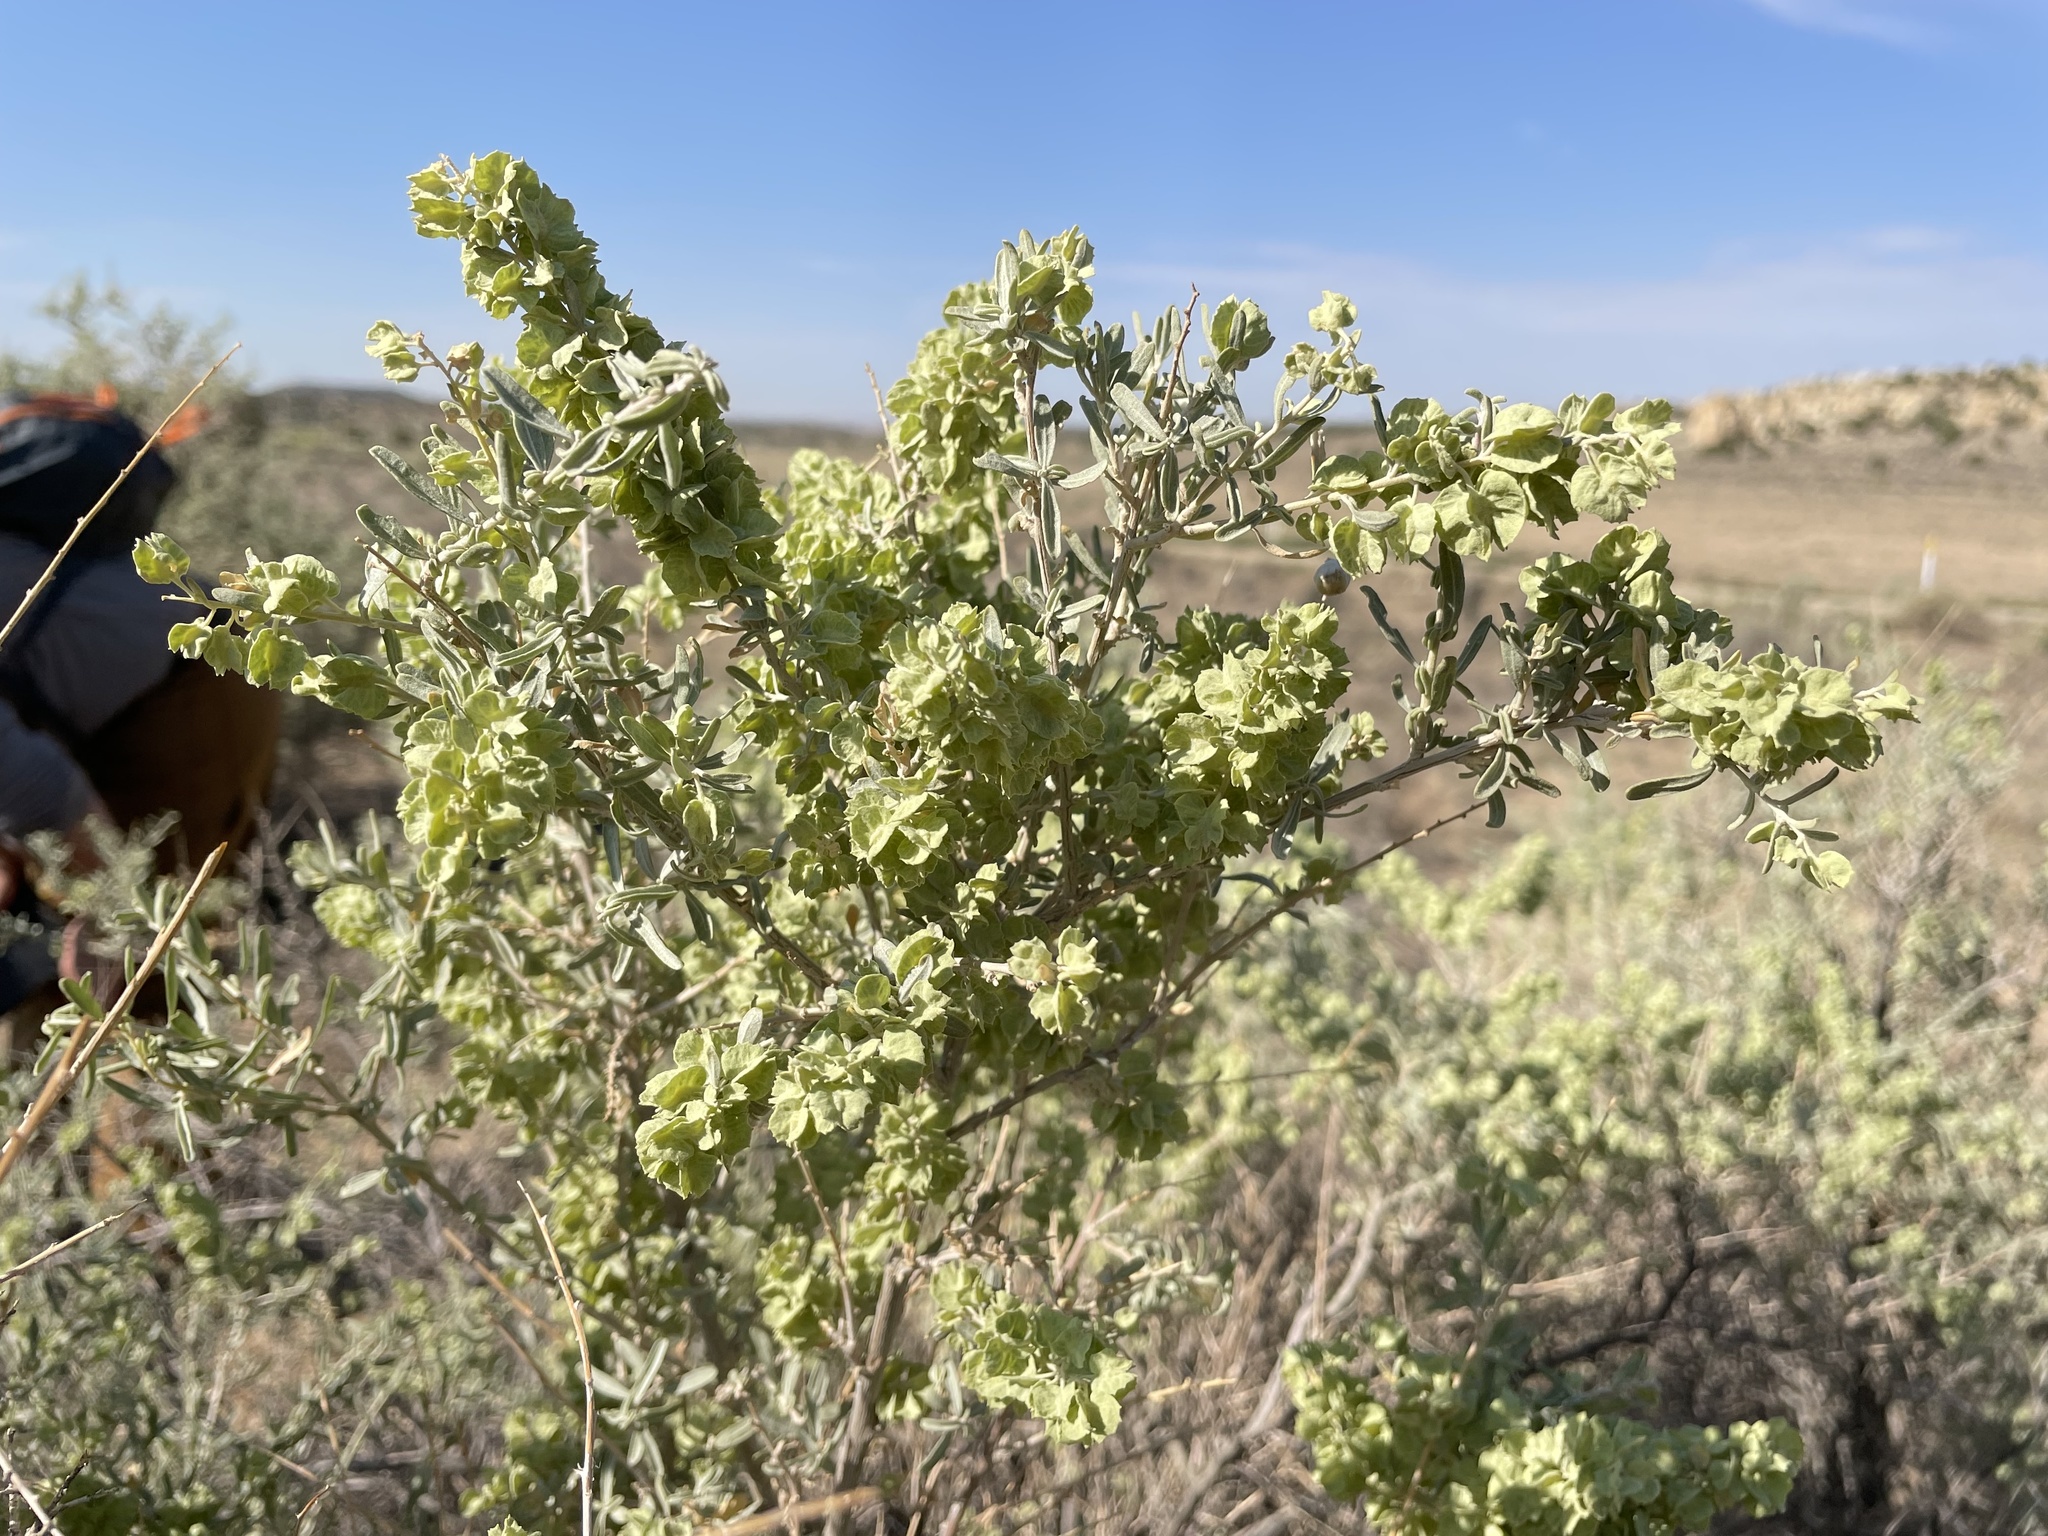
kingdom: Plantae
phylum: Tracheophyta
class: Magnoliopsida
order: Caryophyllales
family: Amaranthaceae
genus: Atriplex
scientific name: Atriplex canescens
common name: Four-wing saltbush
